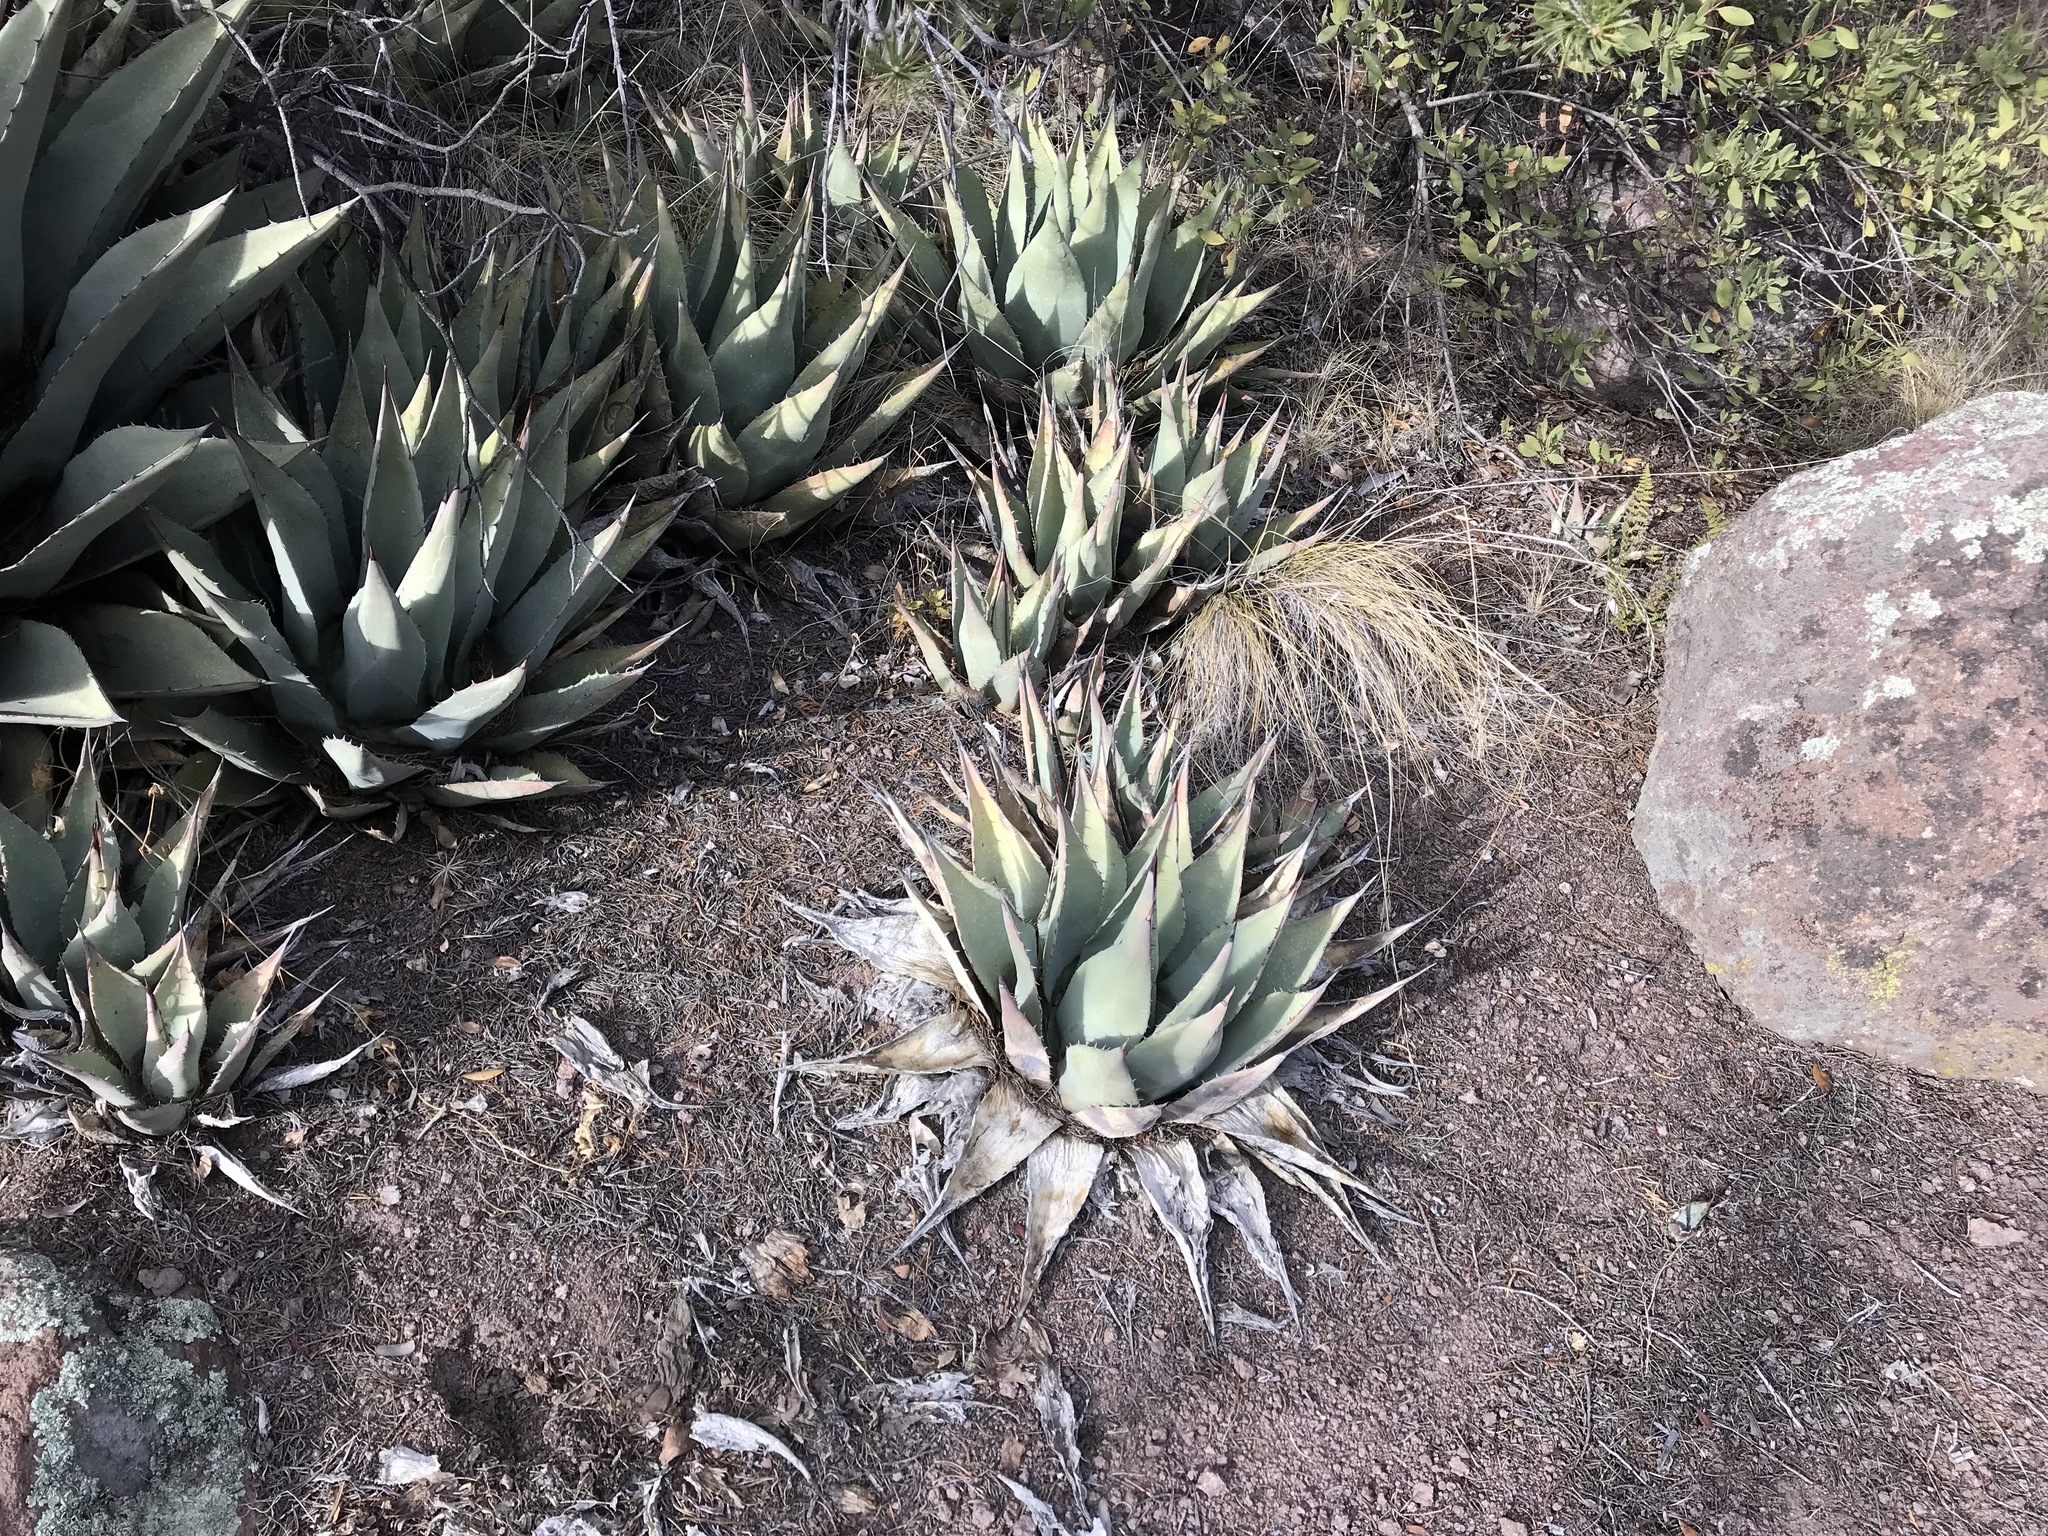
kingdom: Plantae
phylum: Tracheophyta
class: Liliopsida
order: Asparagales
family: Asparagaceae
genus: Agave
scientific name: Agave parryi
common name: Parry's agave
